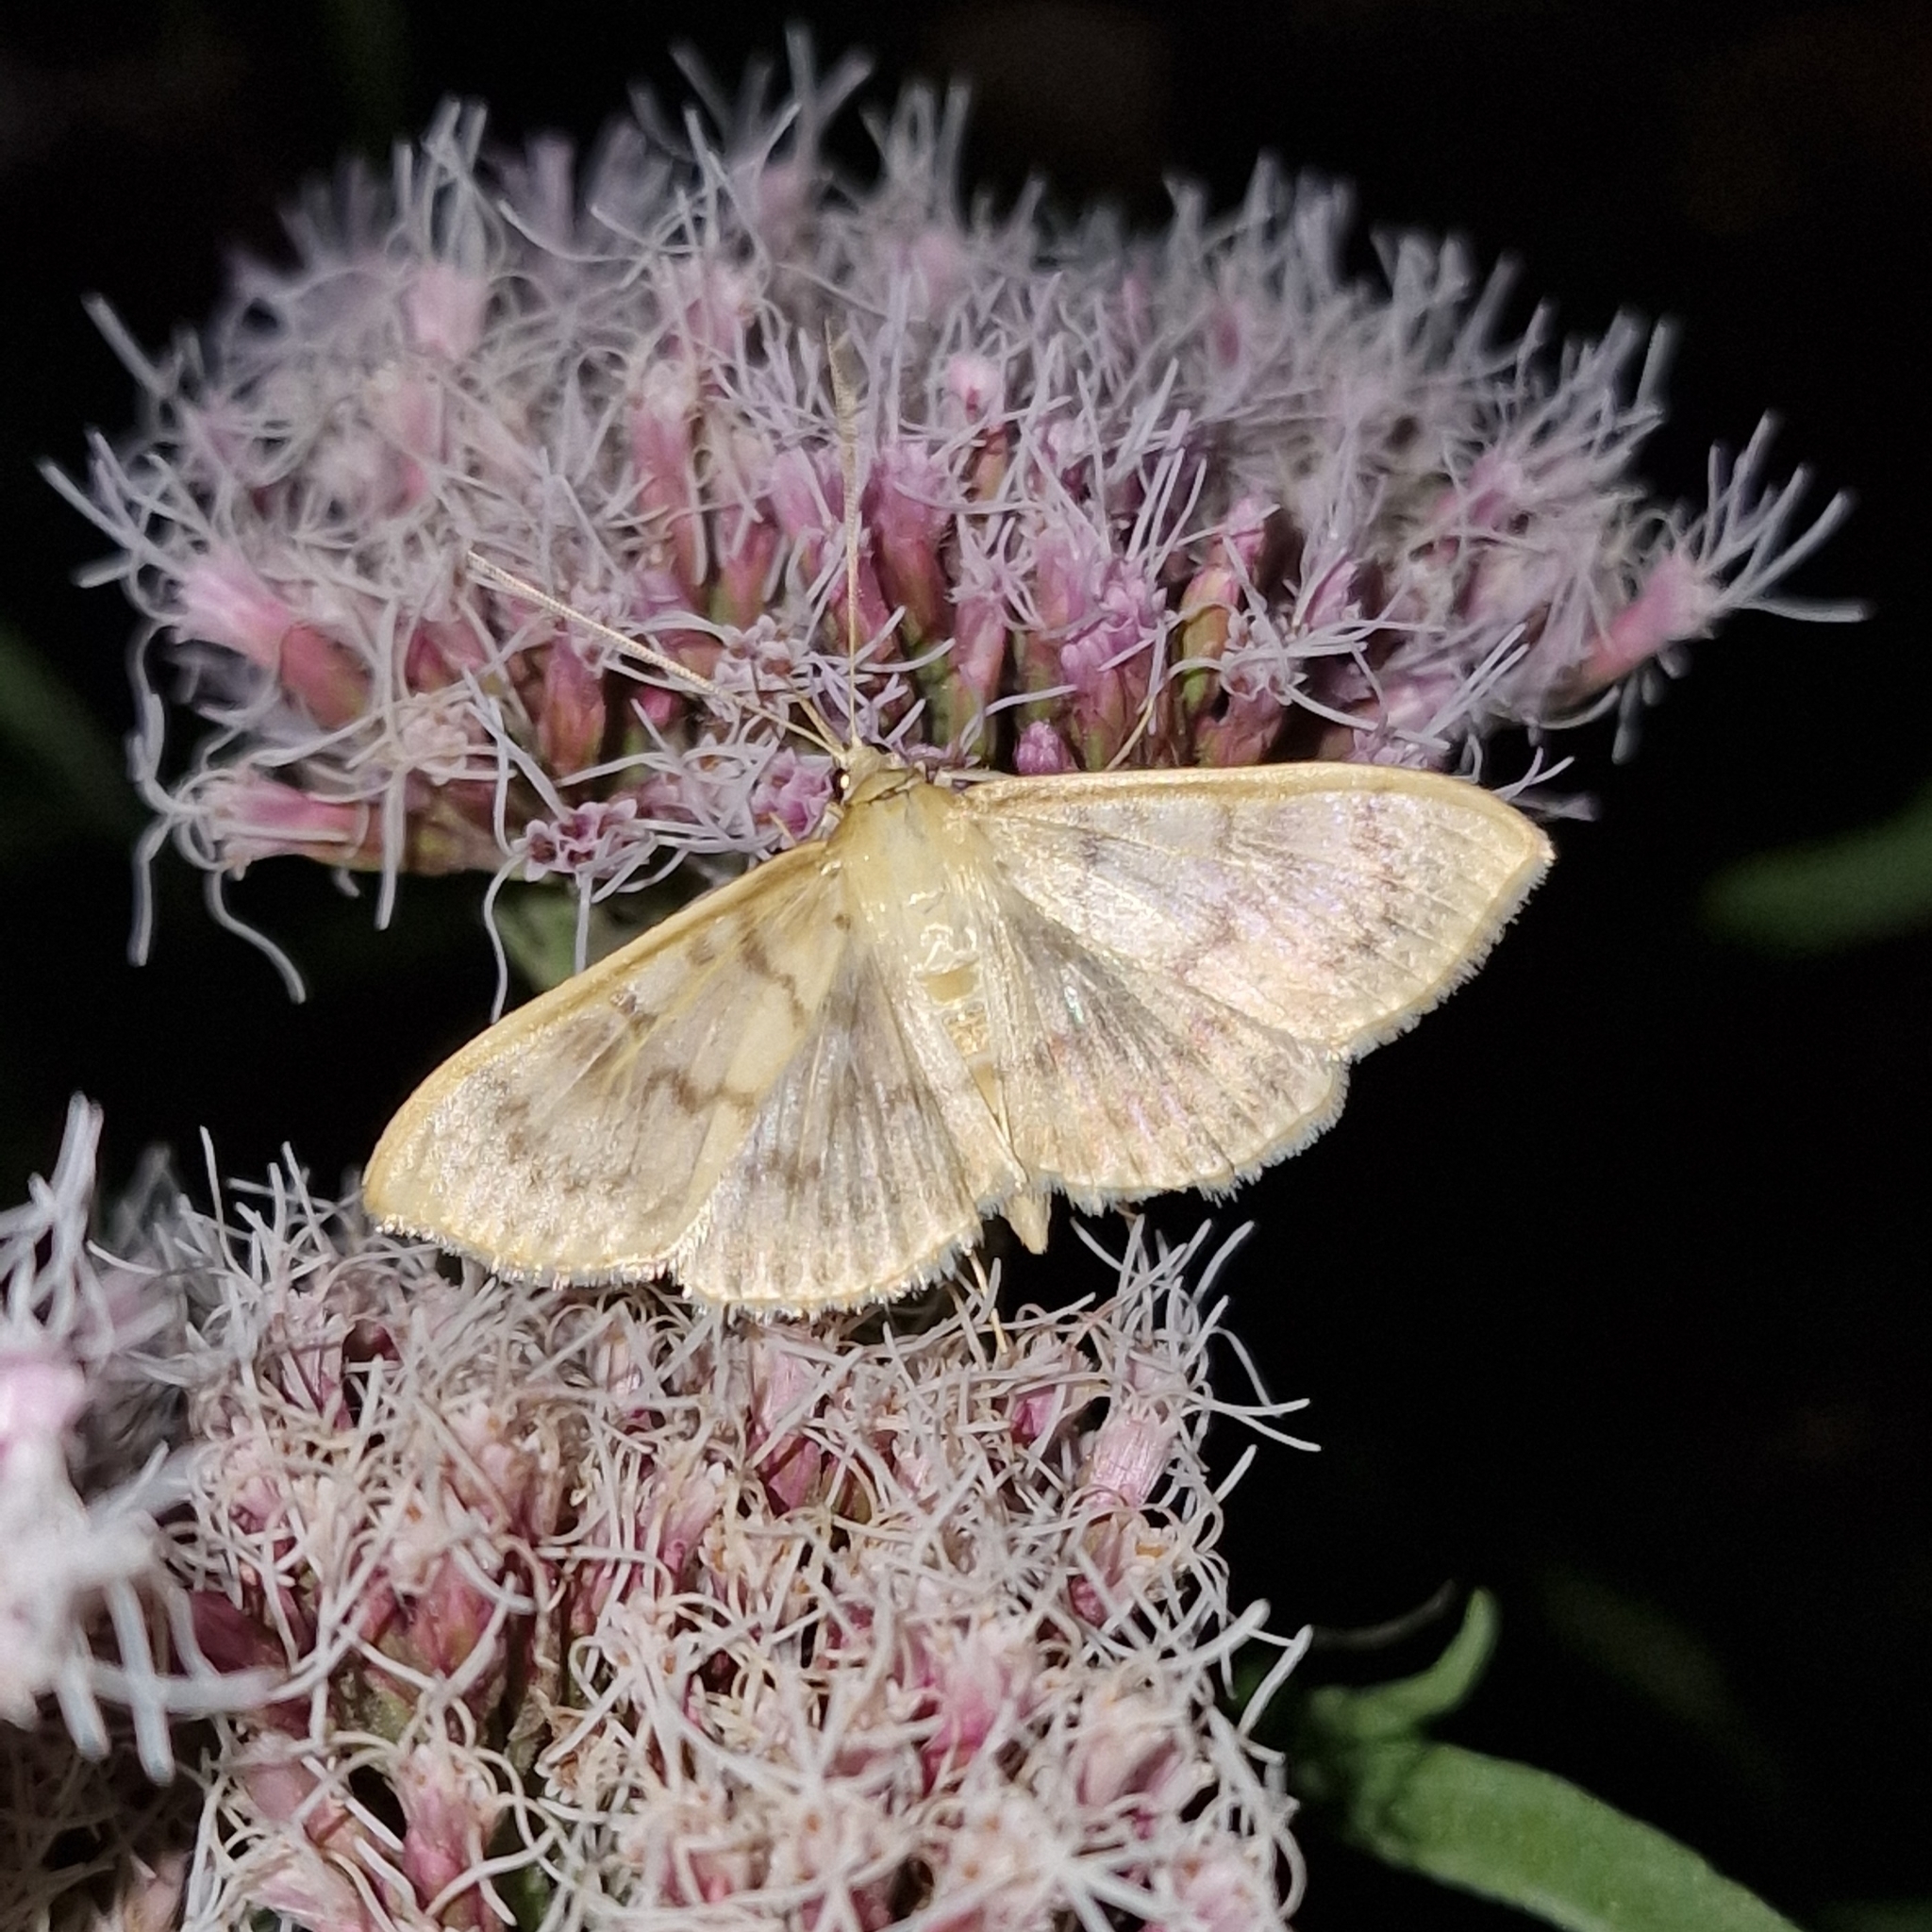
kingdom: Animalia
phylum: Arthropoda
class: Insecta
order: Lepidoptera
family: Crambidae
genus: Patania
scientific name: Patania ruralis
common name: Mother of pearl
